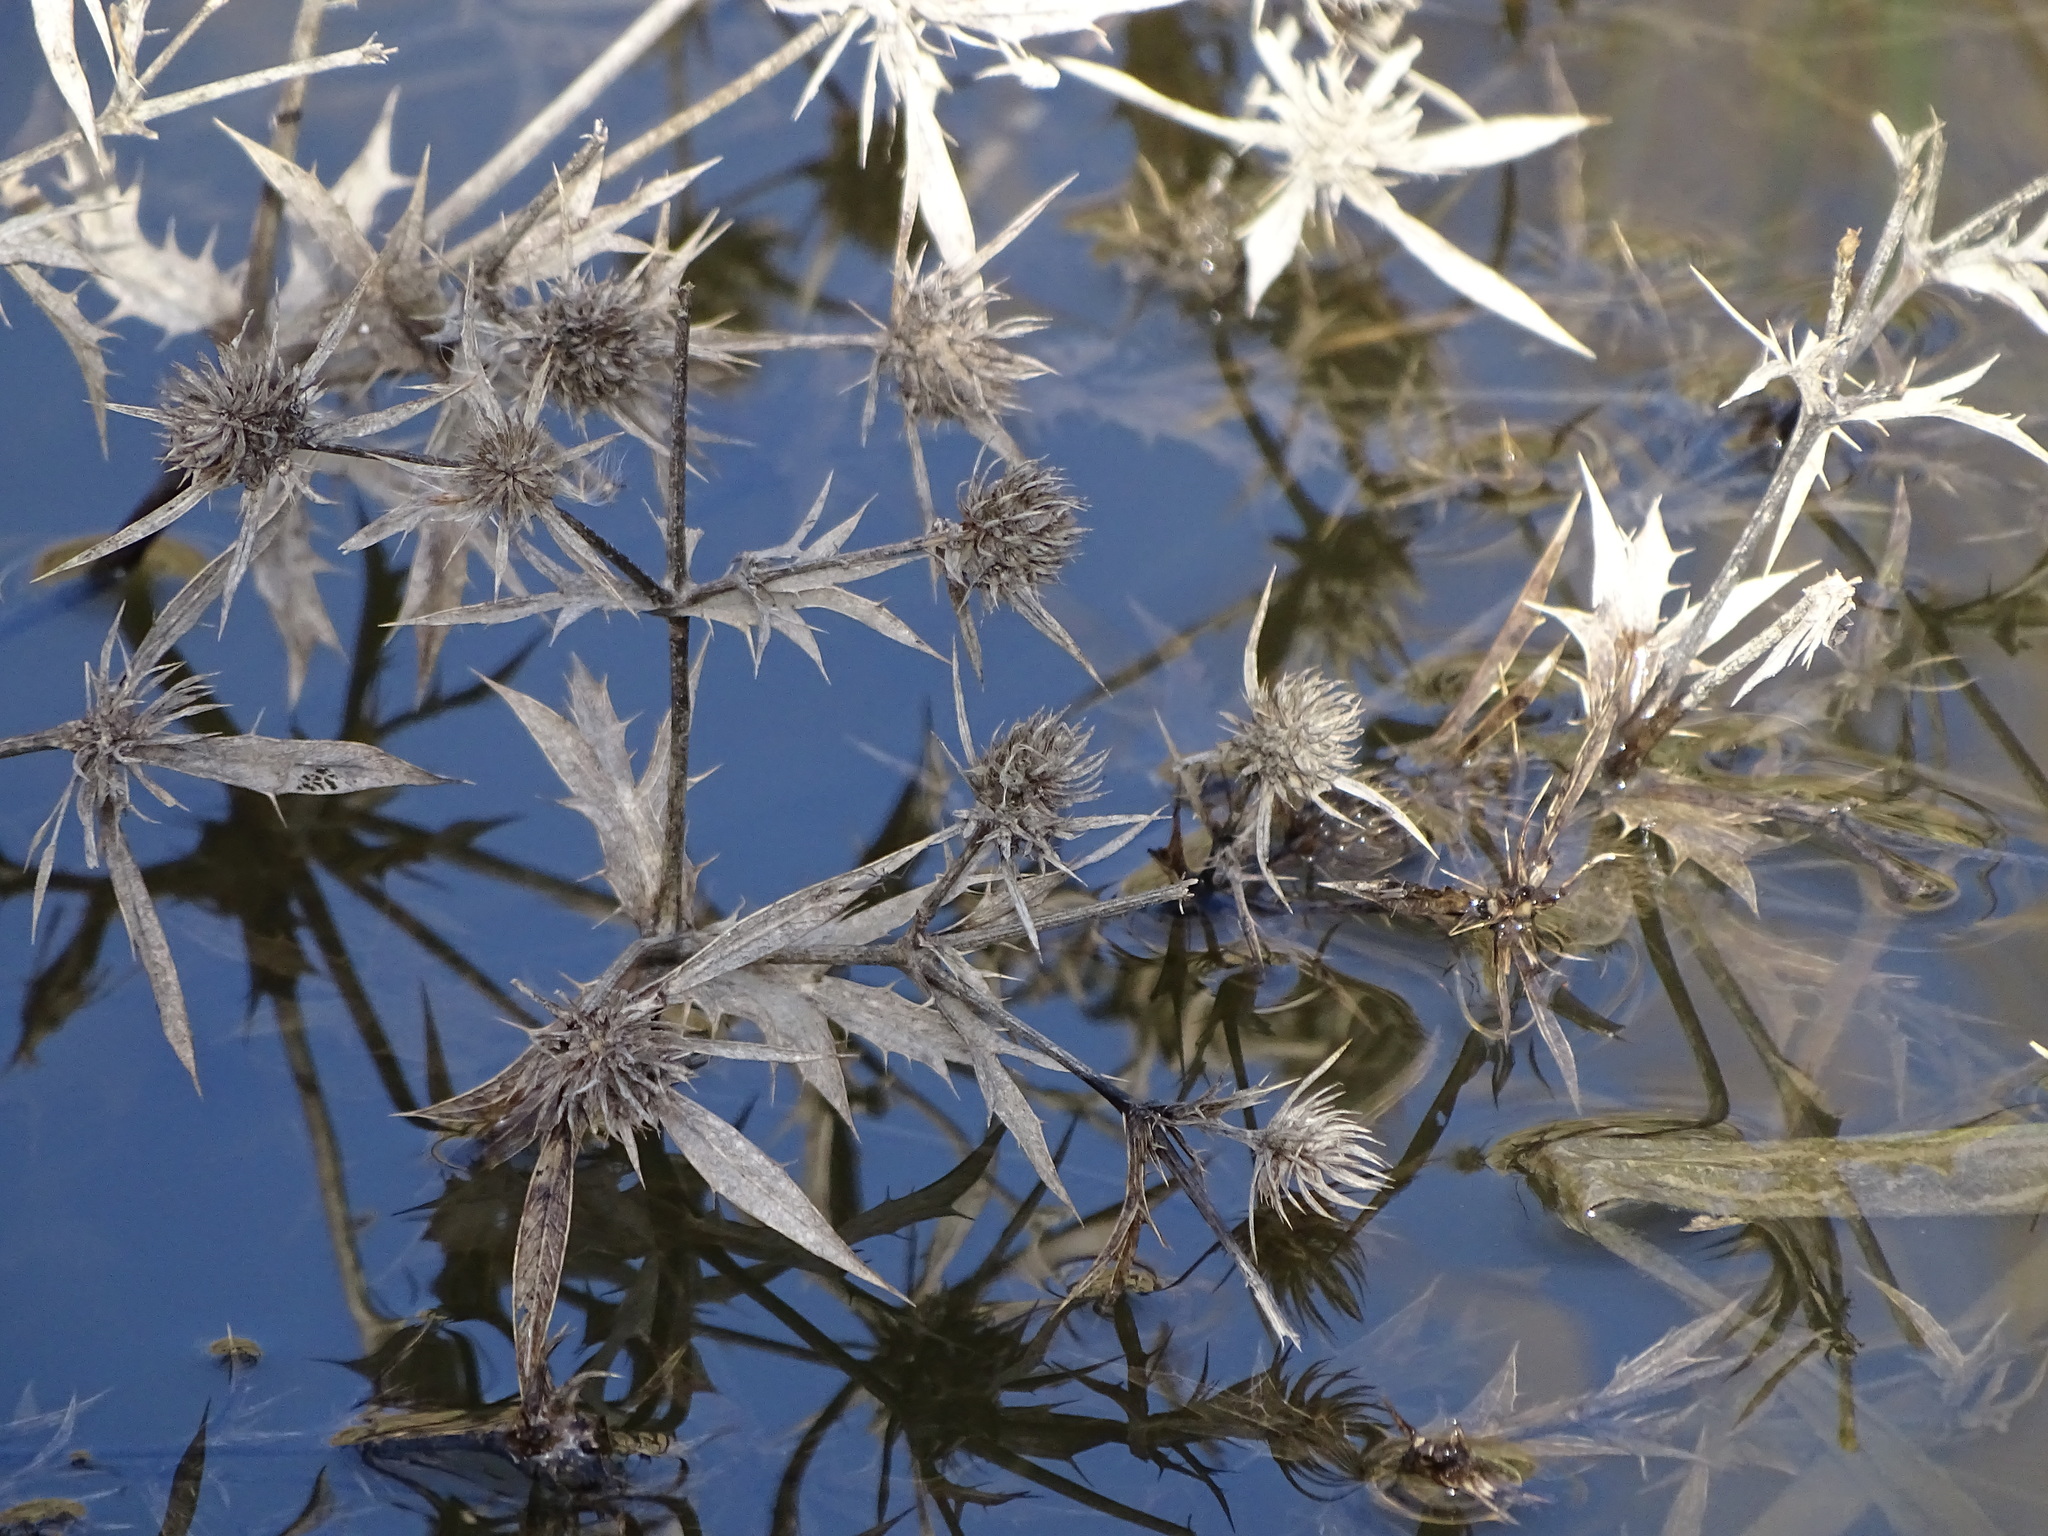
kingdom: Plantae
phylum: Tracheophyta
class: Magnoliopsida
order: Apiales
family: Apiaceae
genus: Eryngium
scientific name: Eryngium campestre
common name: Field eryngo
